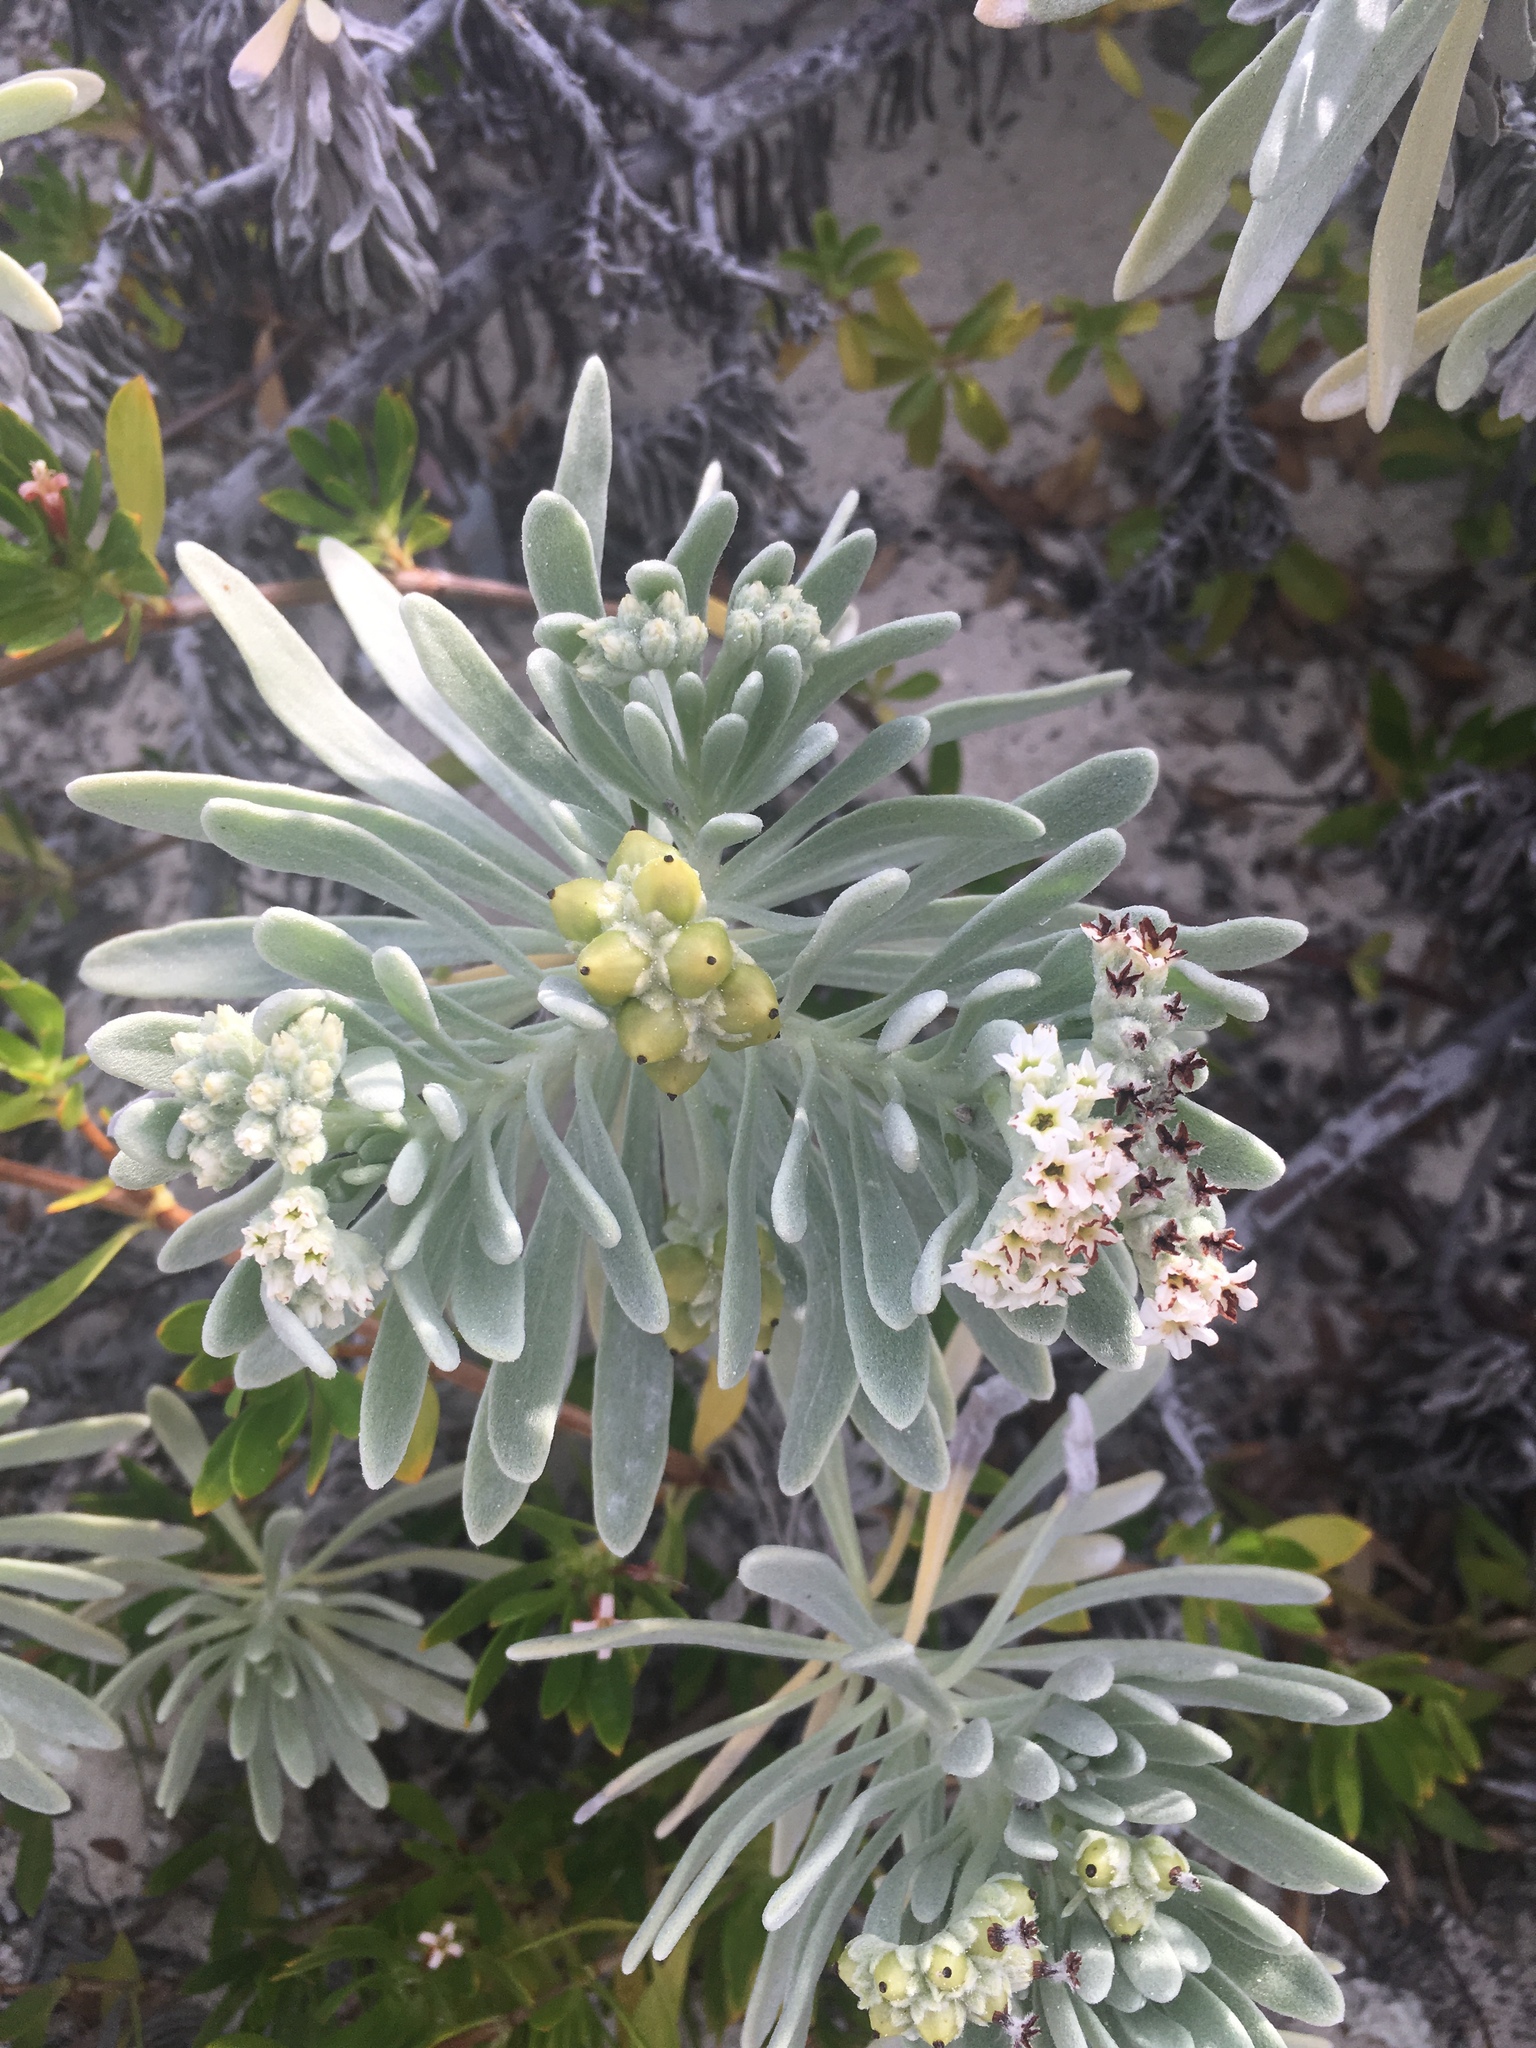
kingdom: Plantae
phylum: Tracheophyta
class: Magnoliopsida
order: Boraginales
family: Heliotropiaceae
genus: Tournefortia
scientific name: Tournefortia gnaphalodes
